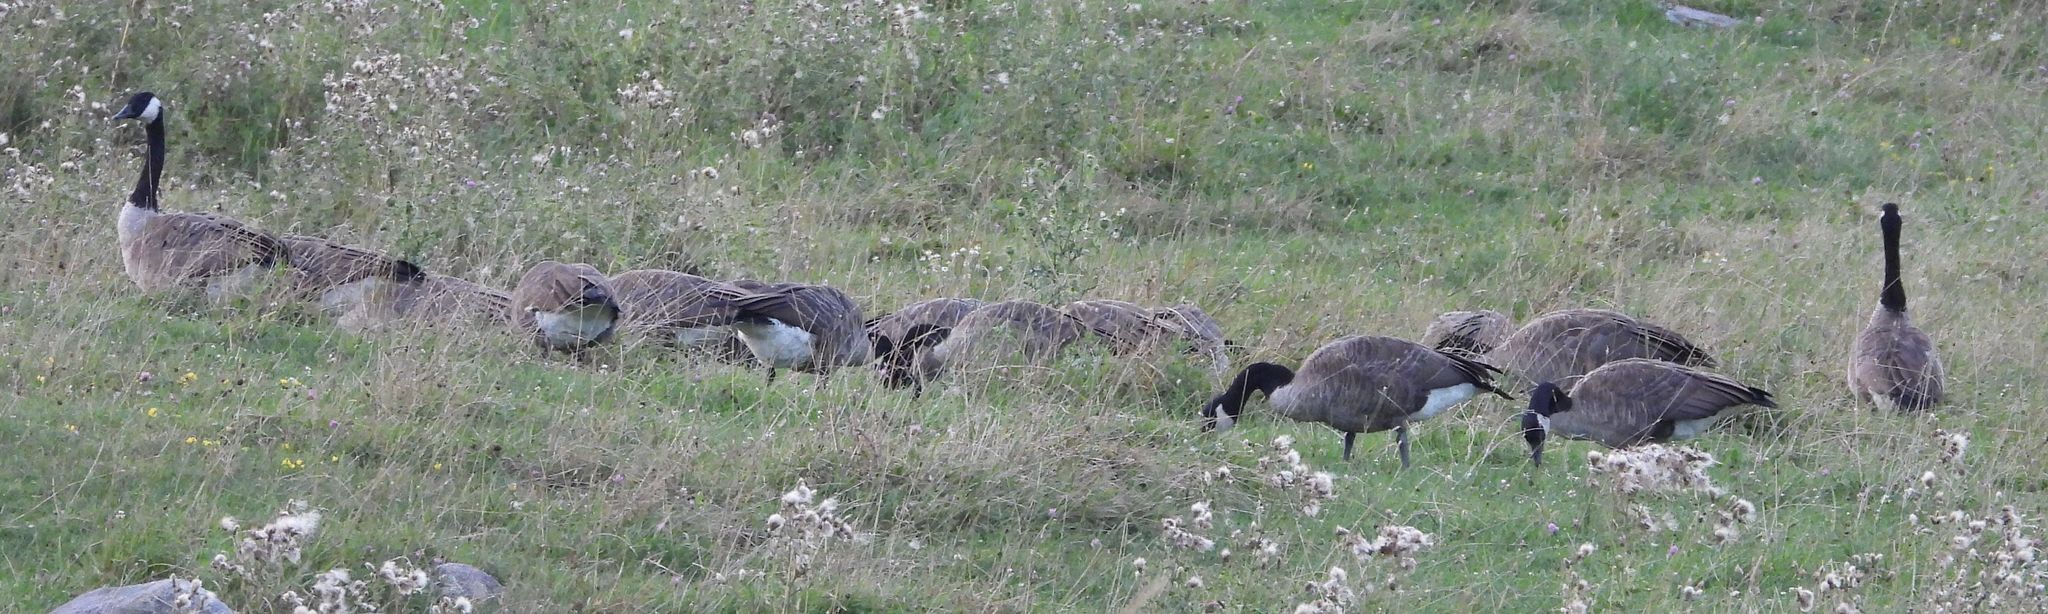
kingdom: Animalia
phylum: Chordata
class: Aves
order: Anseriformes
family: Anatidae
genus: Branta
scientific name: Branta canadensis
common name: Canada goose
